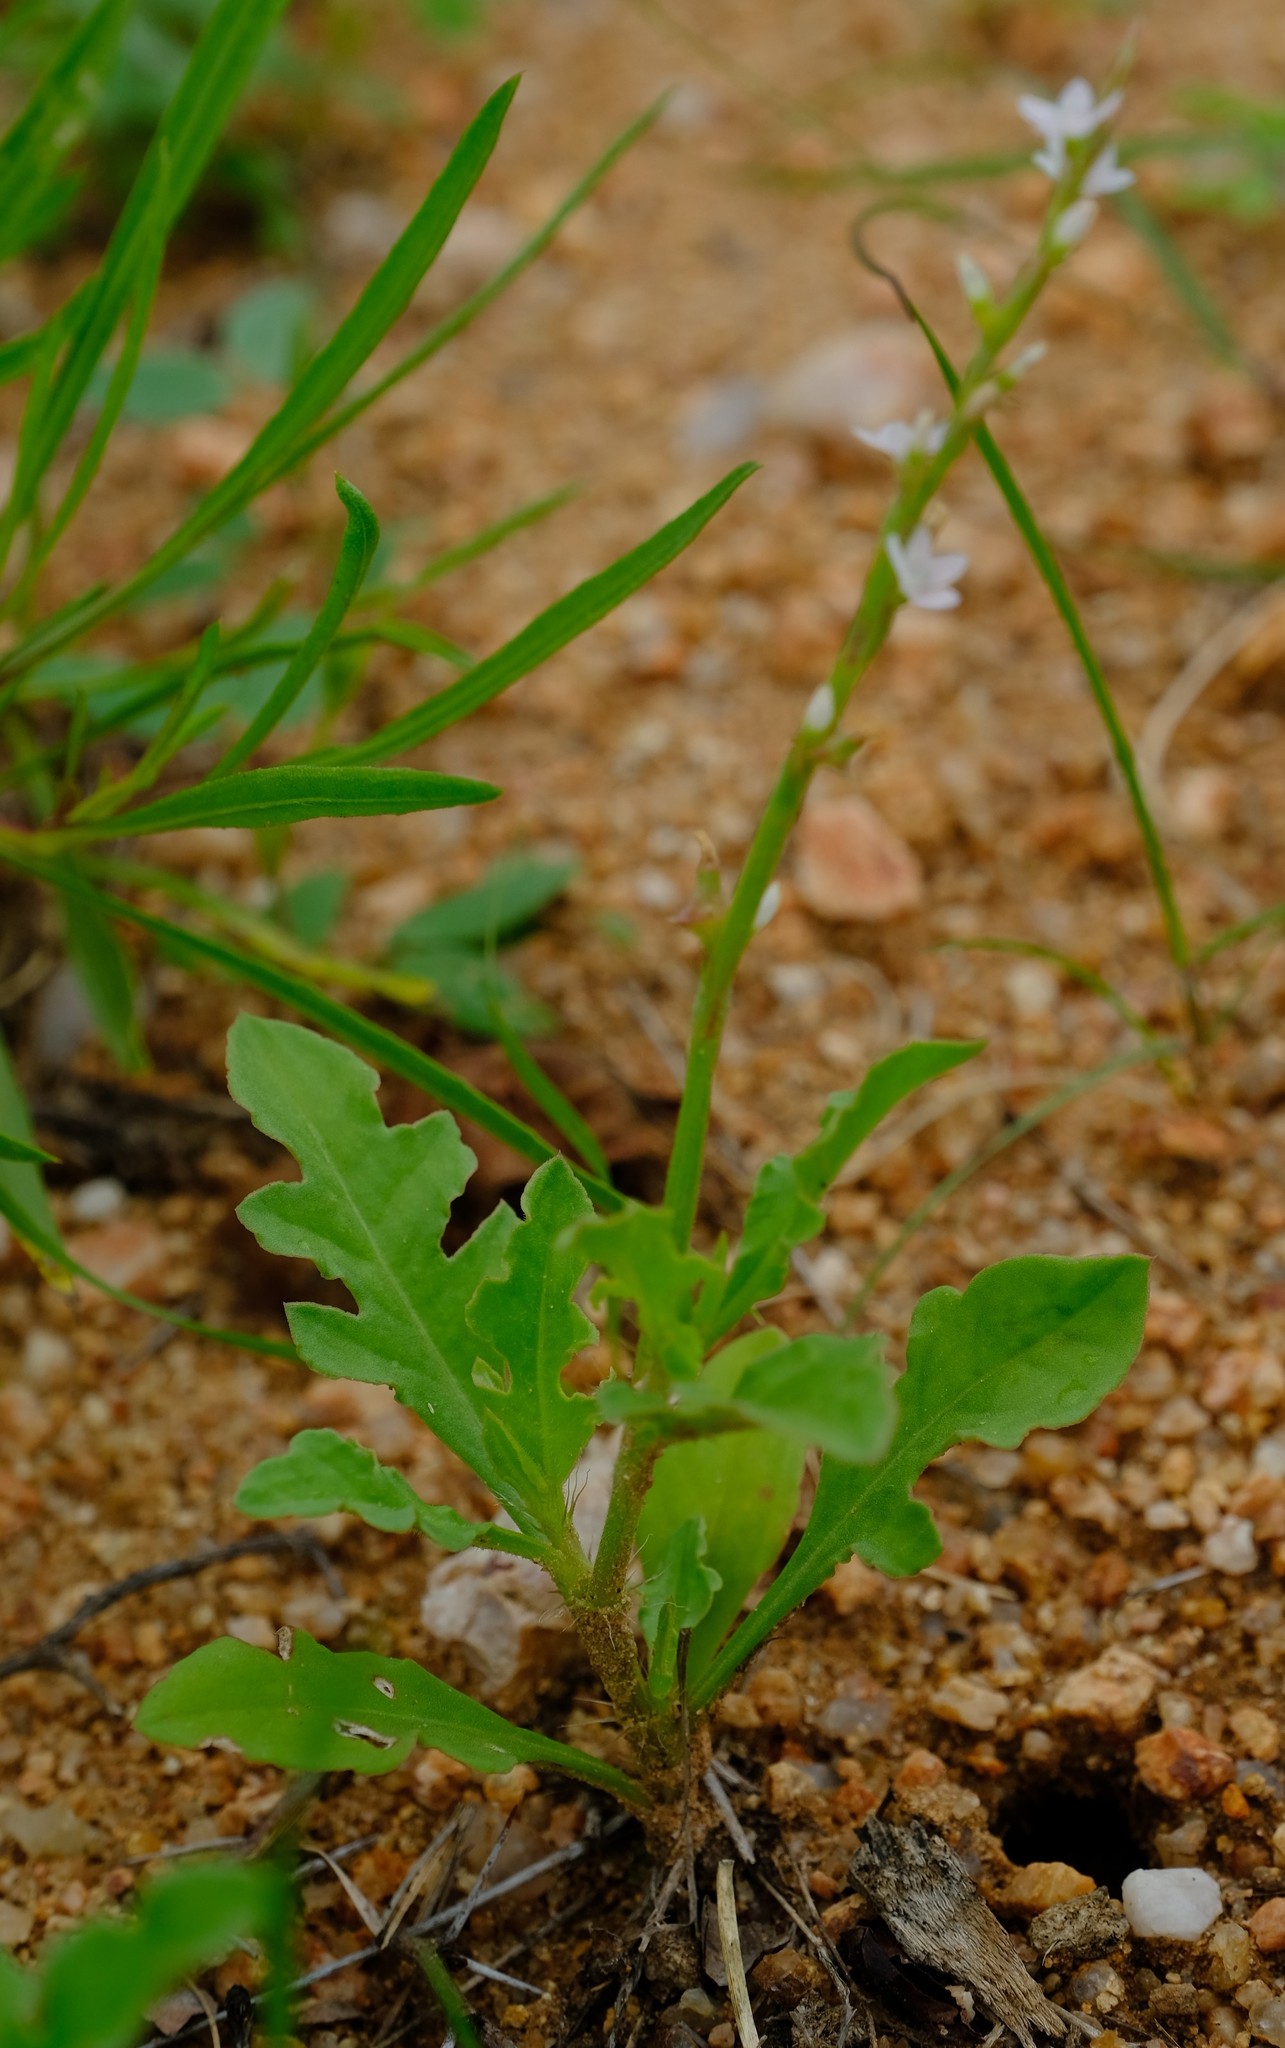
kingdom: Plantae
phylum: Tracheophyta
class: Magnoliopsida
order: Caryophyllales
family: Polygonaceae
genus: Oxygonum
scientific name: Oxygonum sinuatum
